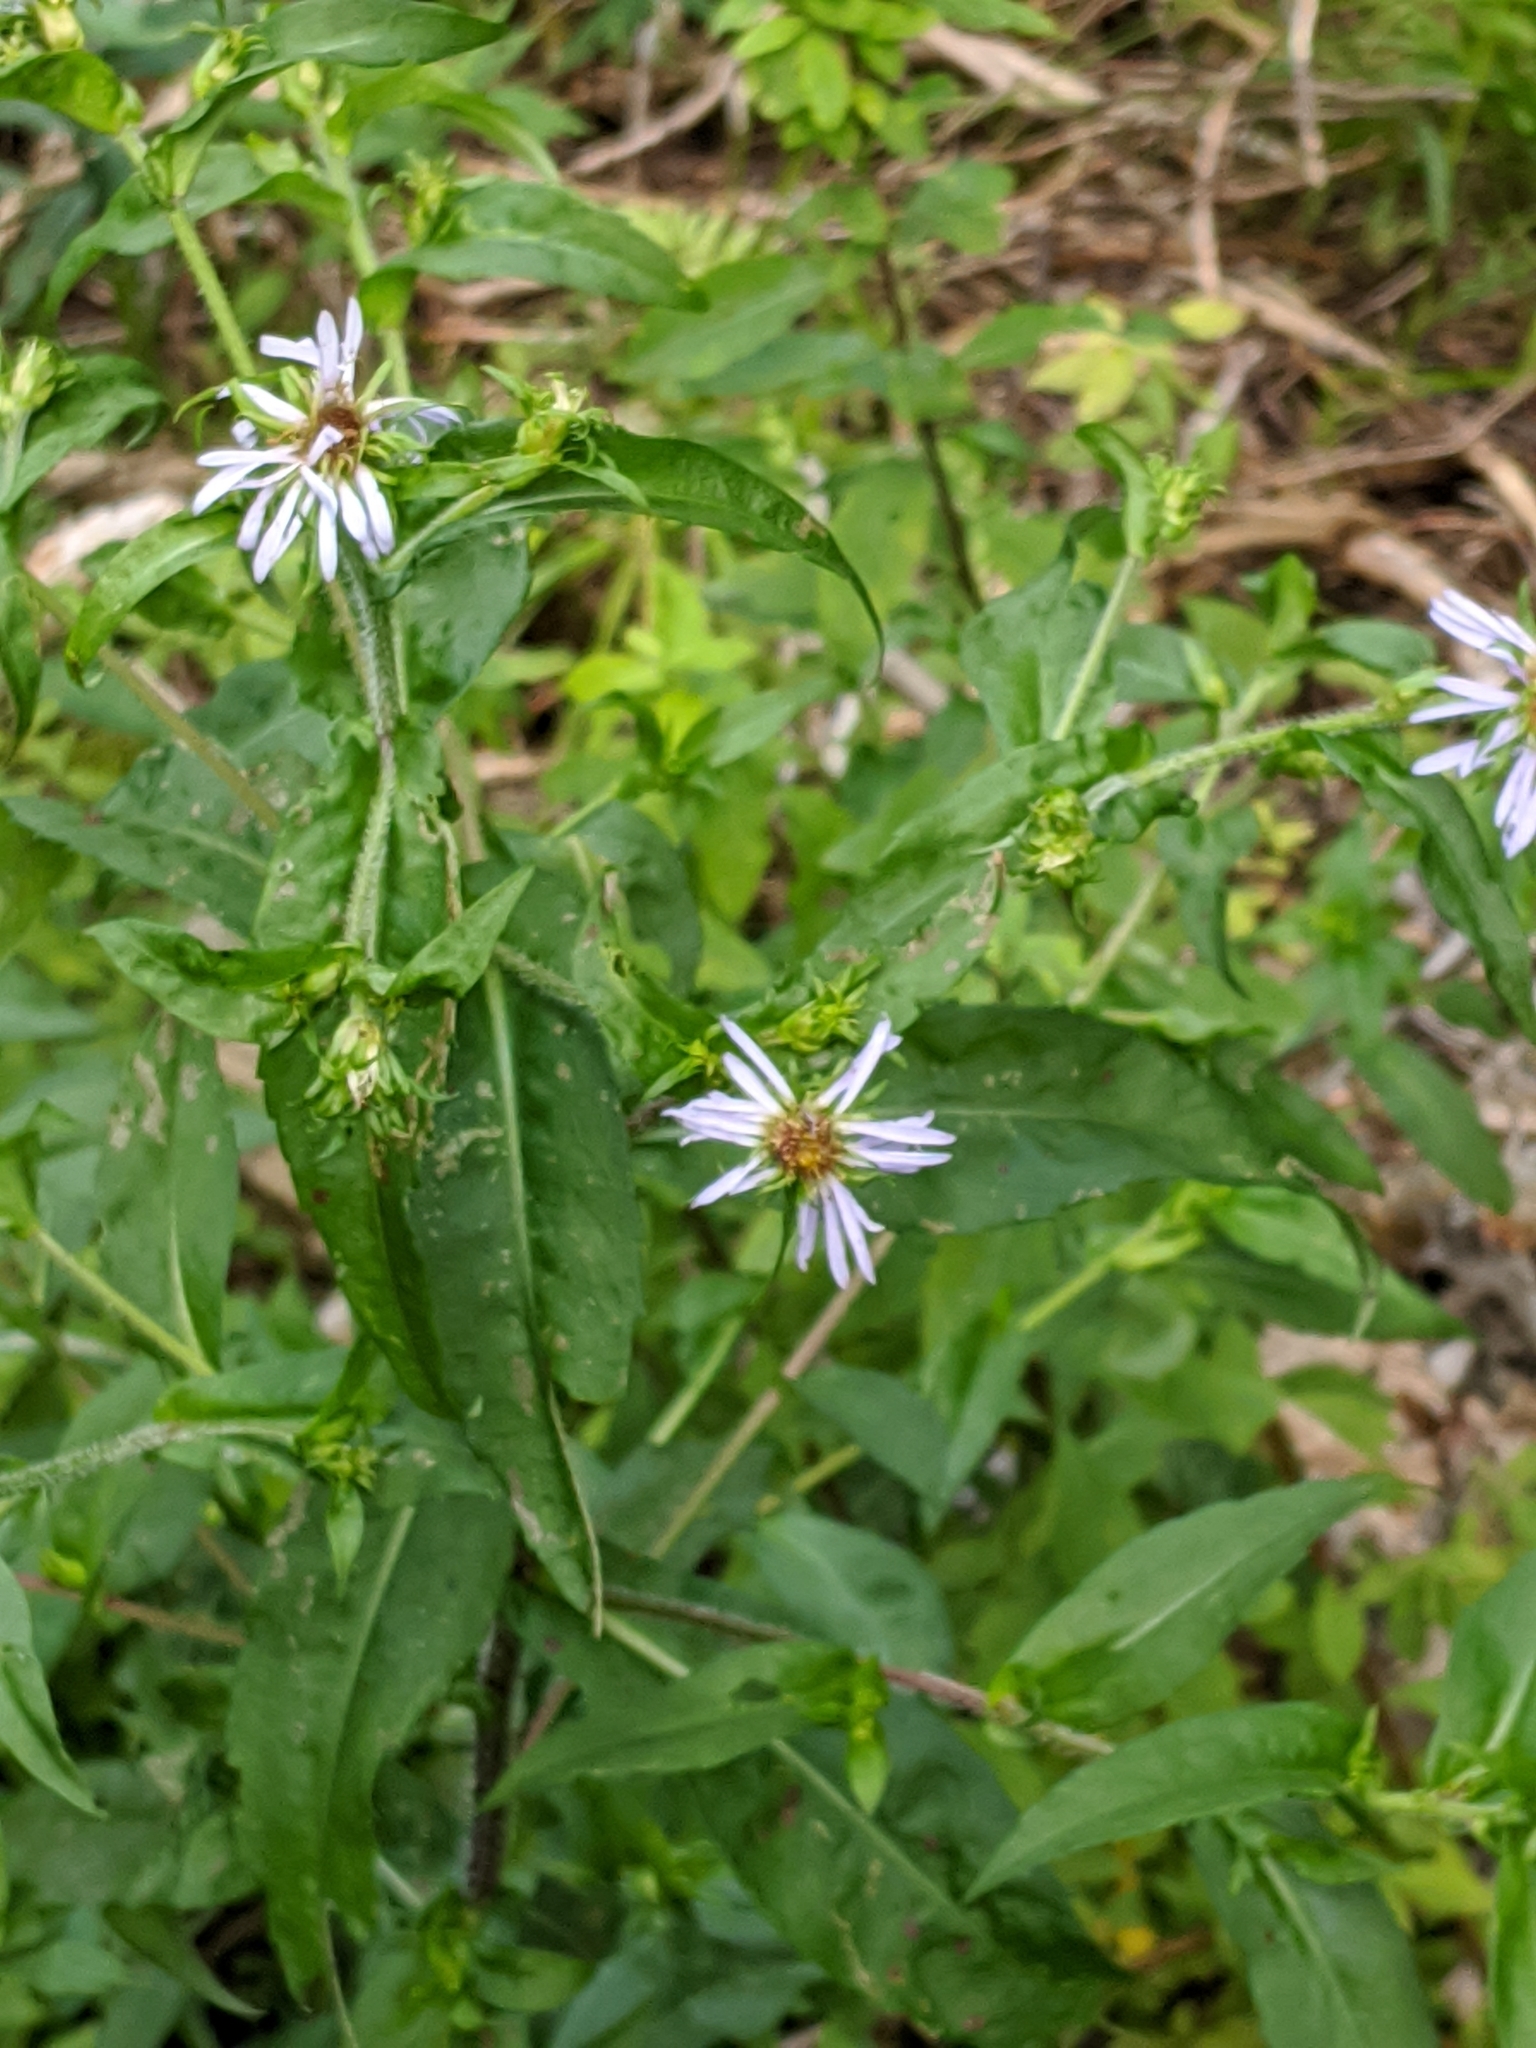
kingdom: Plantae
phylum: Tracheophyta
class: Magnoliopsida
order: Asterales
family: Asteraceae
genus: Symphyotrichum
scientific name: Symphyotrichum puniceum
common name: Bog aster
